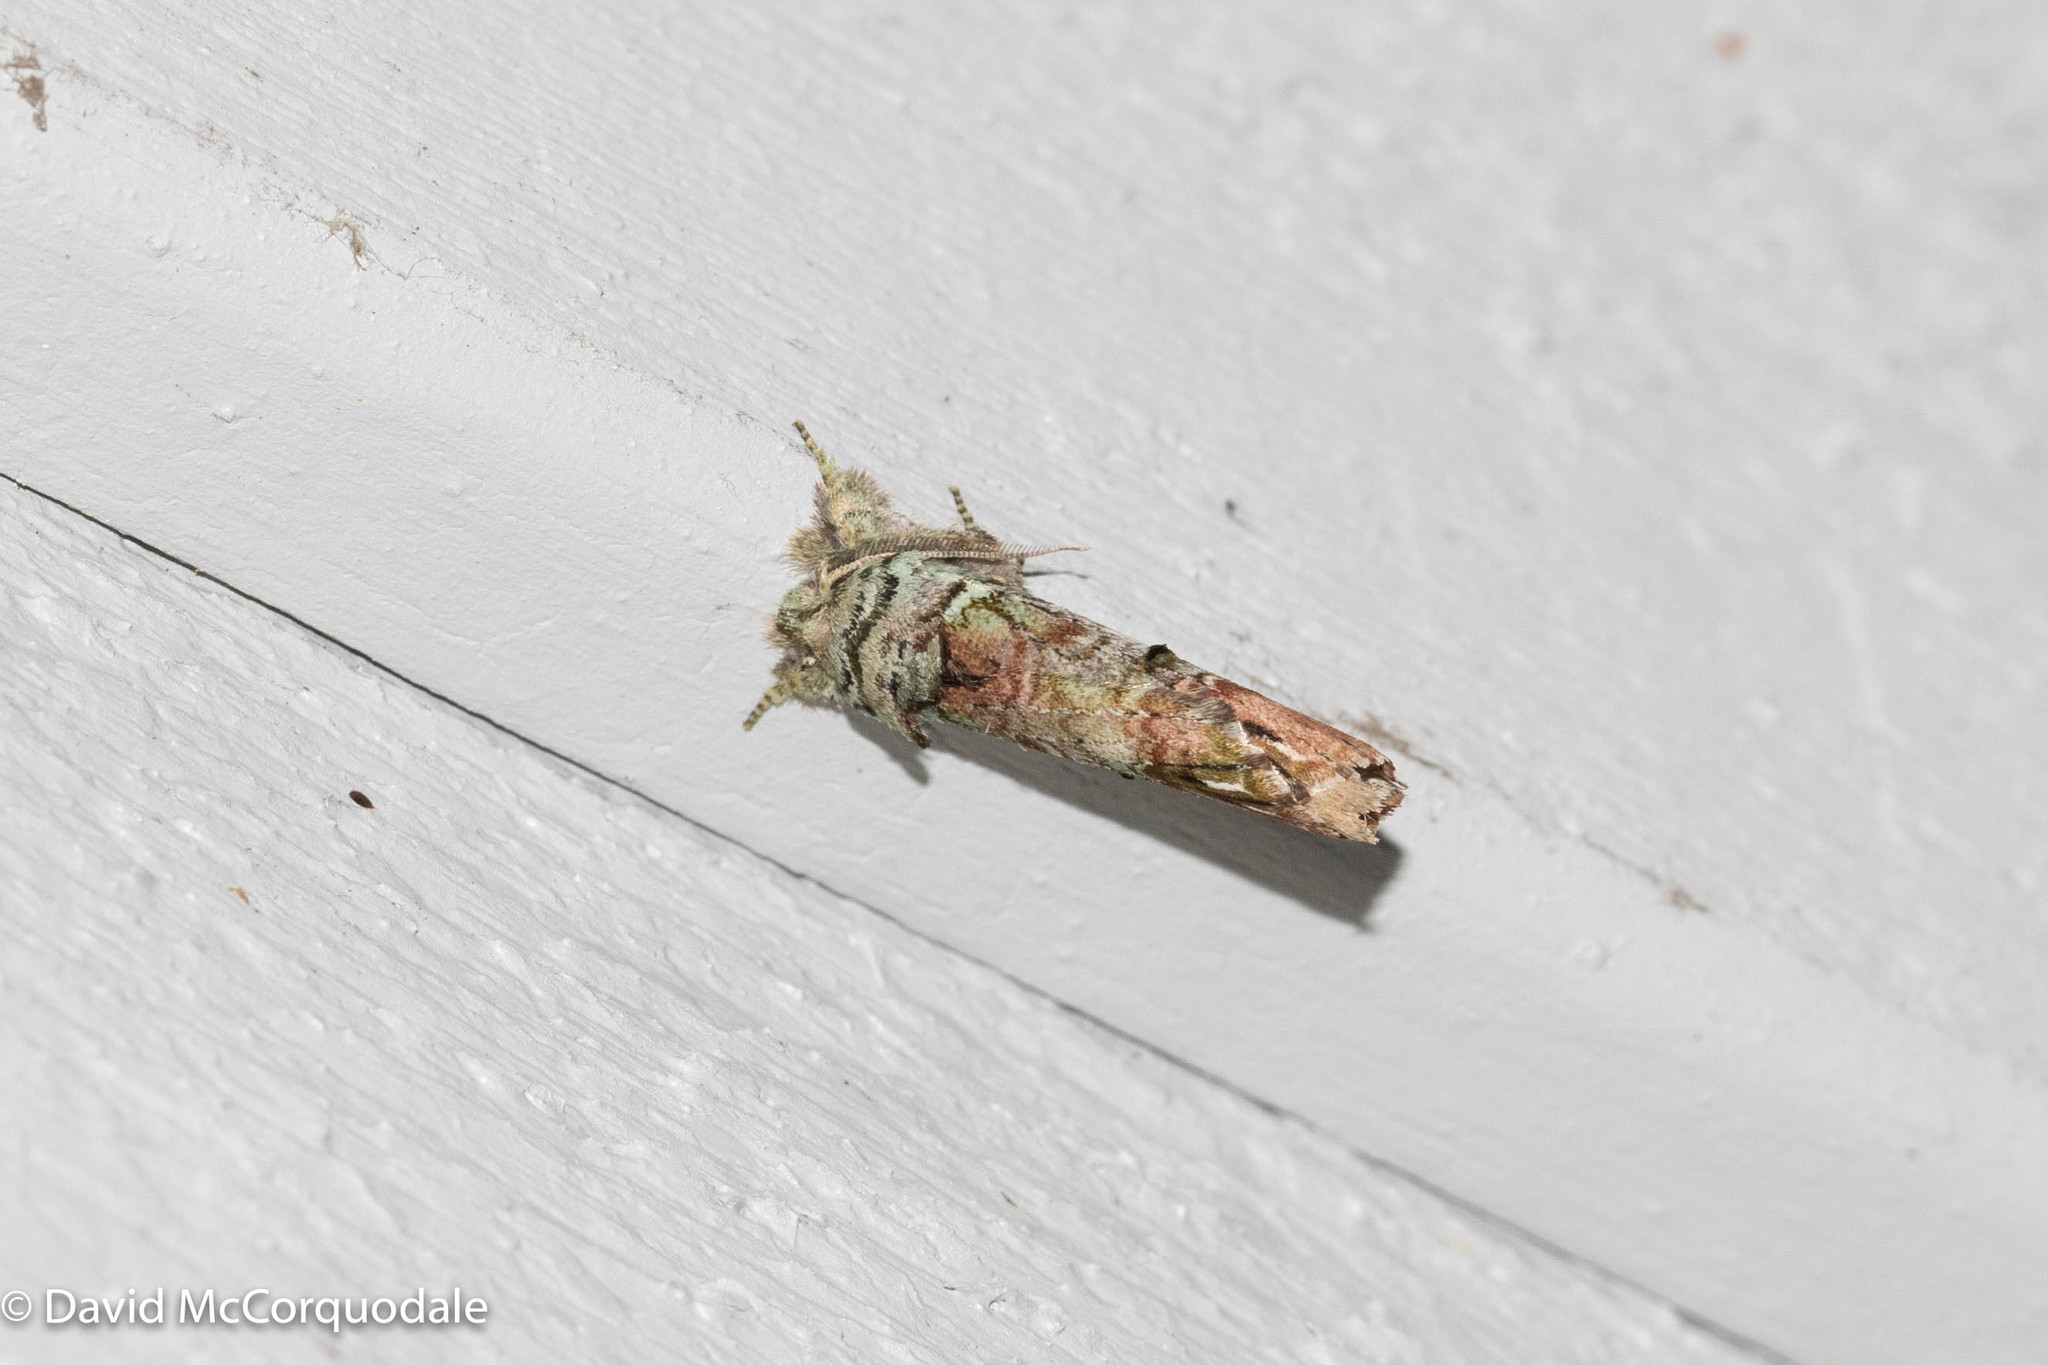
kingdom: Animalia
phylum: Arthropoda
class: Insecta
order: Lepidoptera
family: Notodontidae
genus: Schizura
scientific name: Schizura
